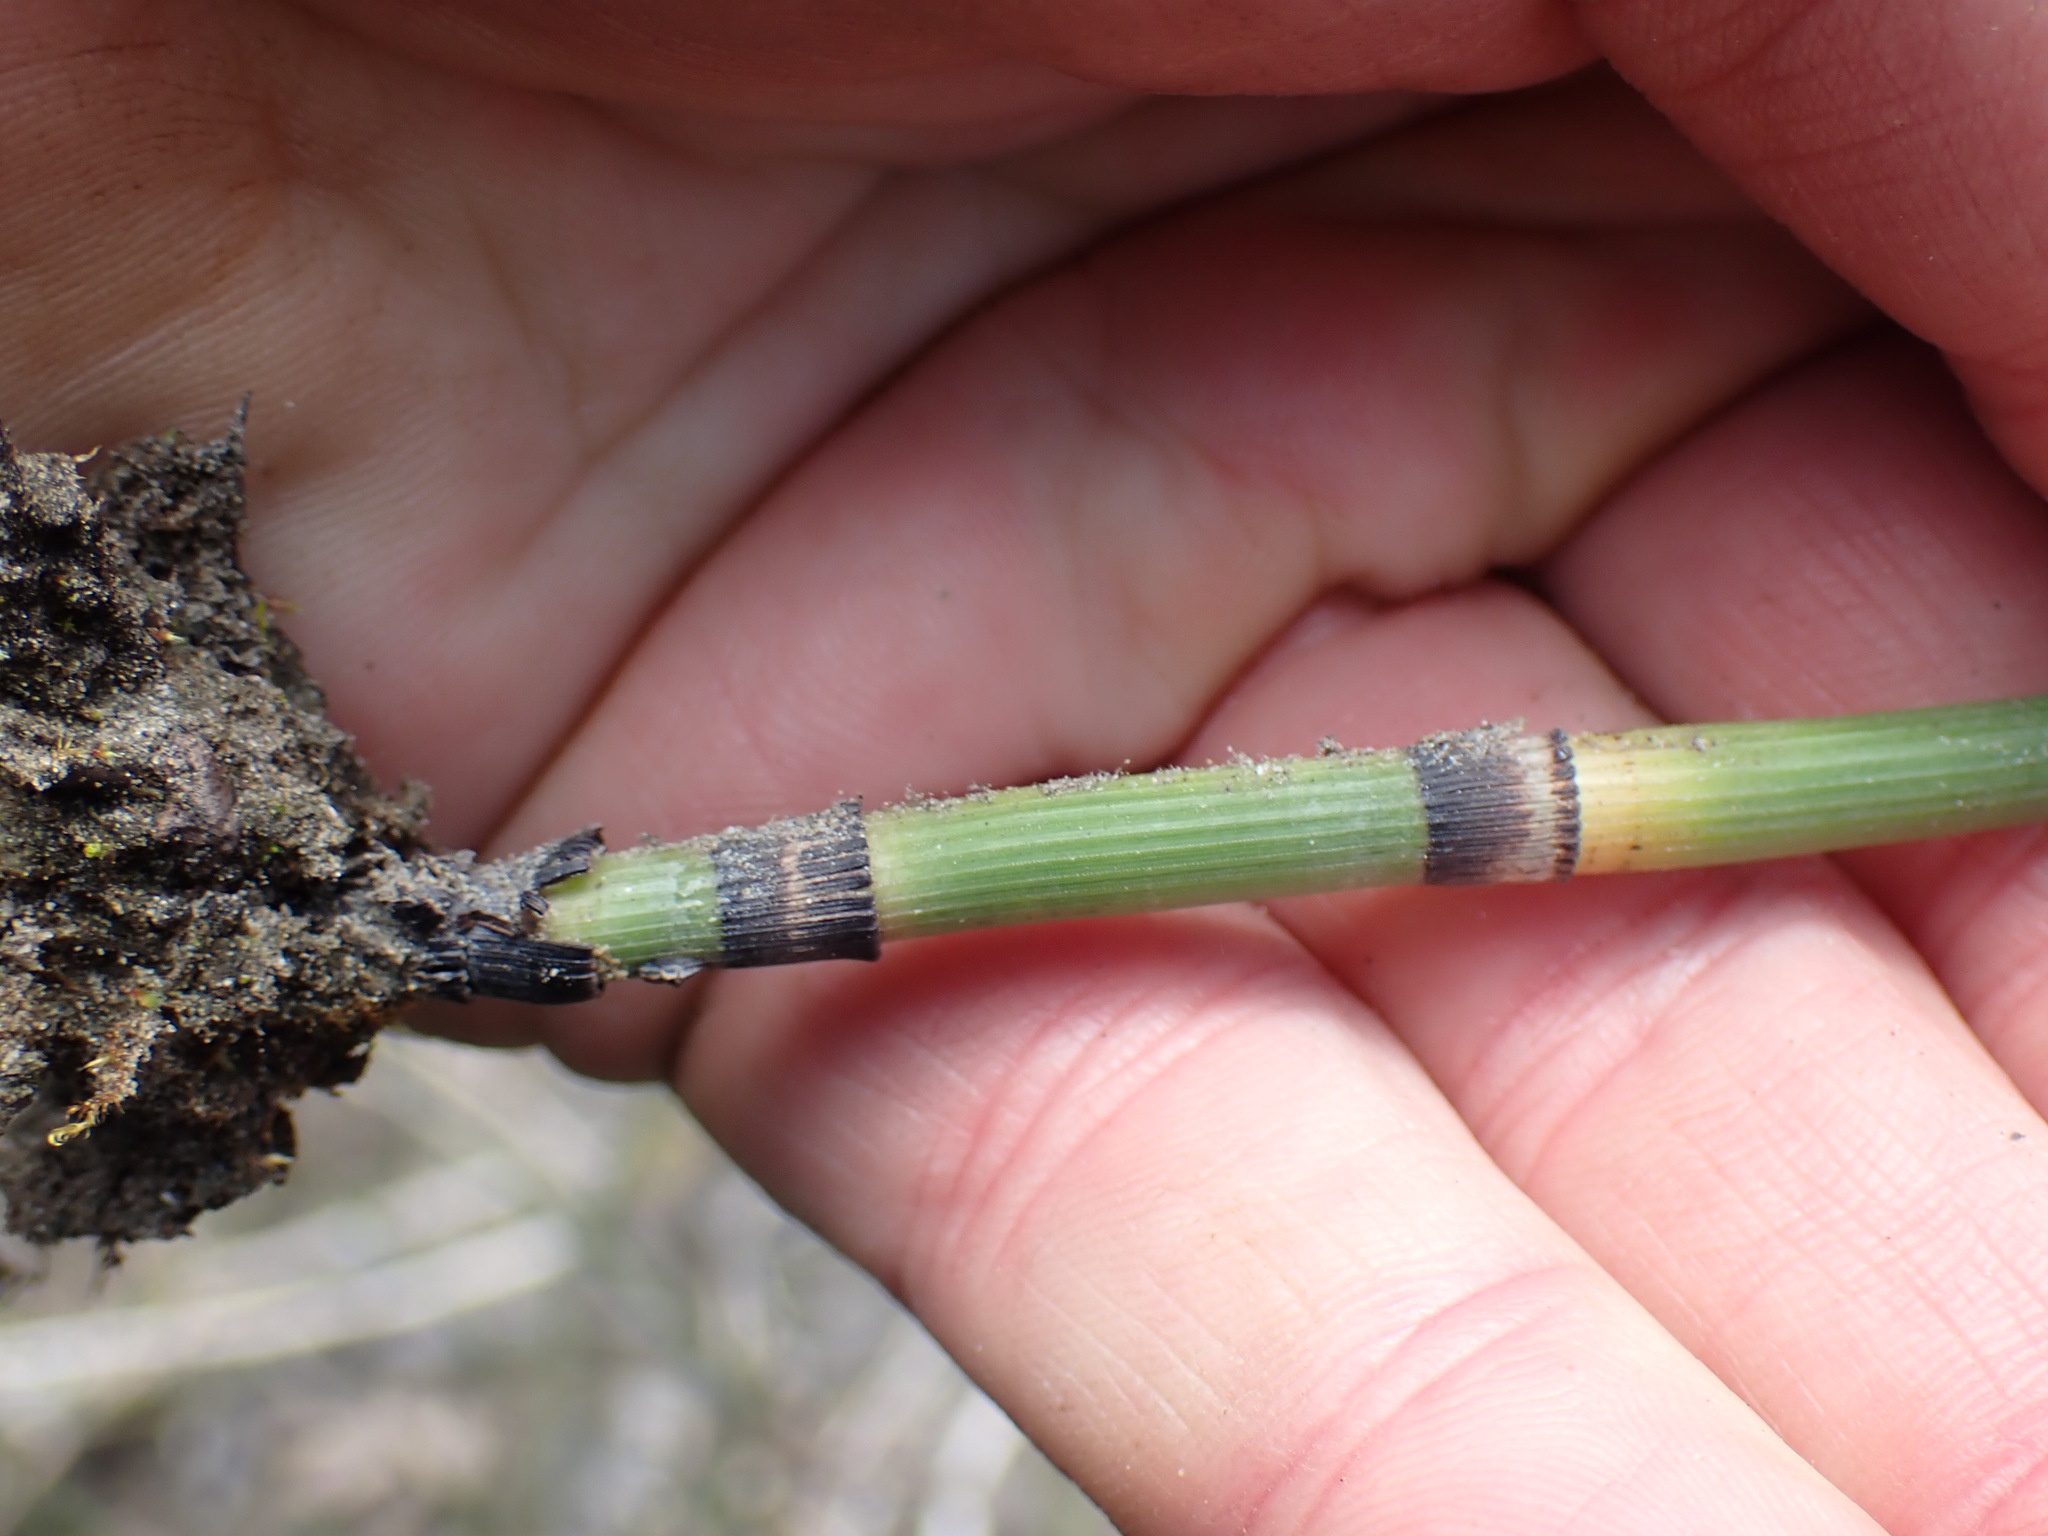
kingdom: Plantae
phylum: Tracheophyta
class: Polypodiopsida
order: Equisetales
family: Equisetaceae
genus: Equisetum
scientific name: Equisetum praealtum
